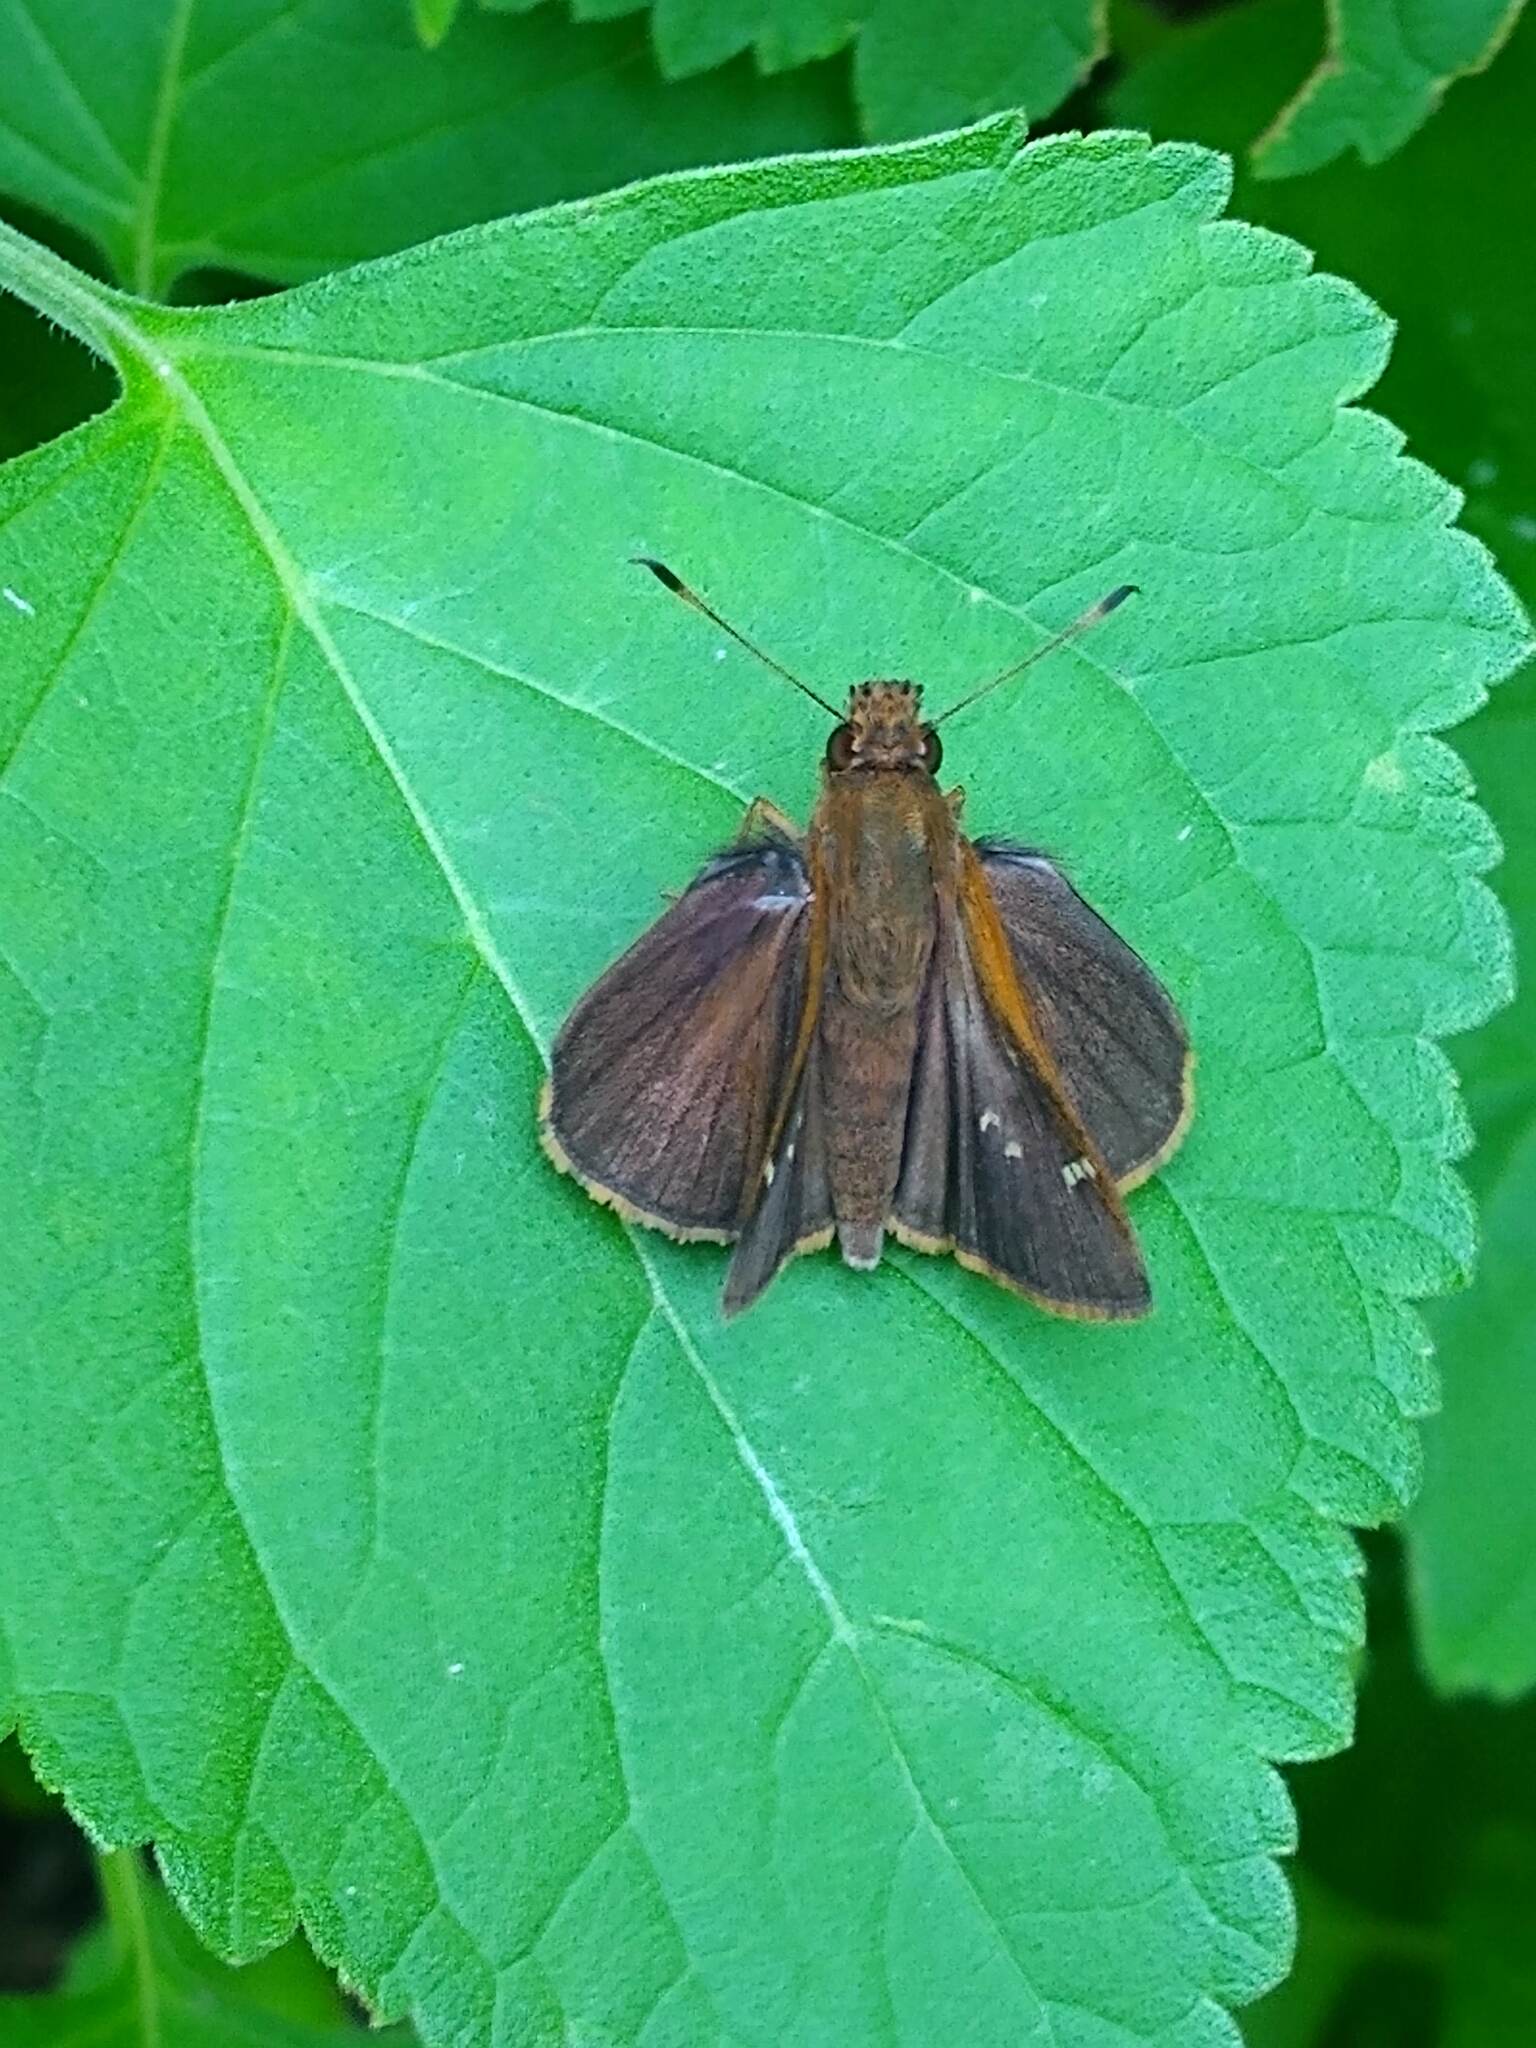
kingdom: Animalia
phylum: Arthropoda
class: Insecta
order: Lepidoptera
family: Hesperiidae
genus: Quinta
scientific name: Quinta cannae
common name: Canna skipper
